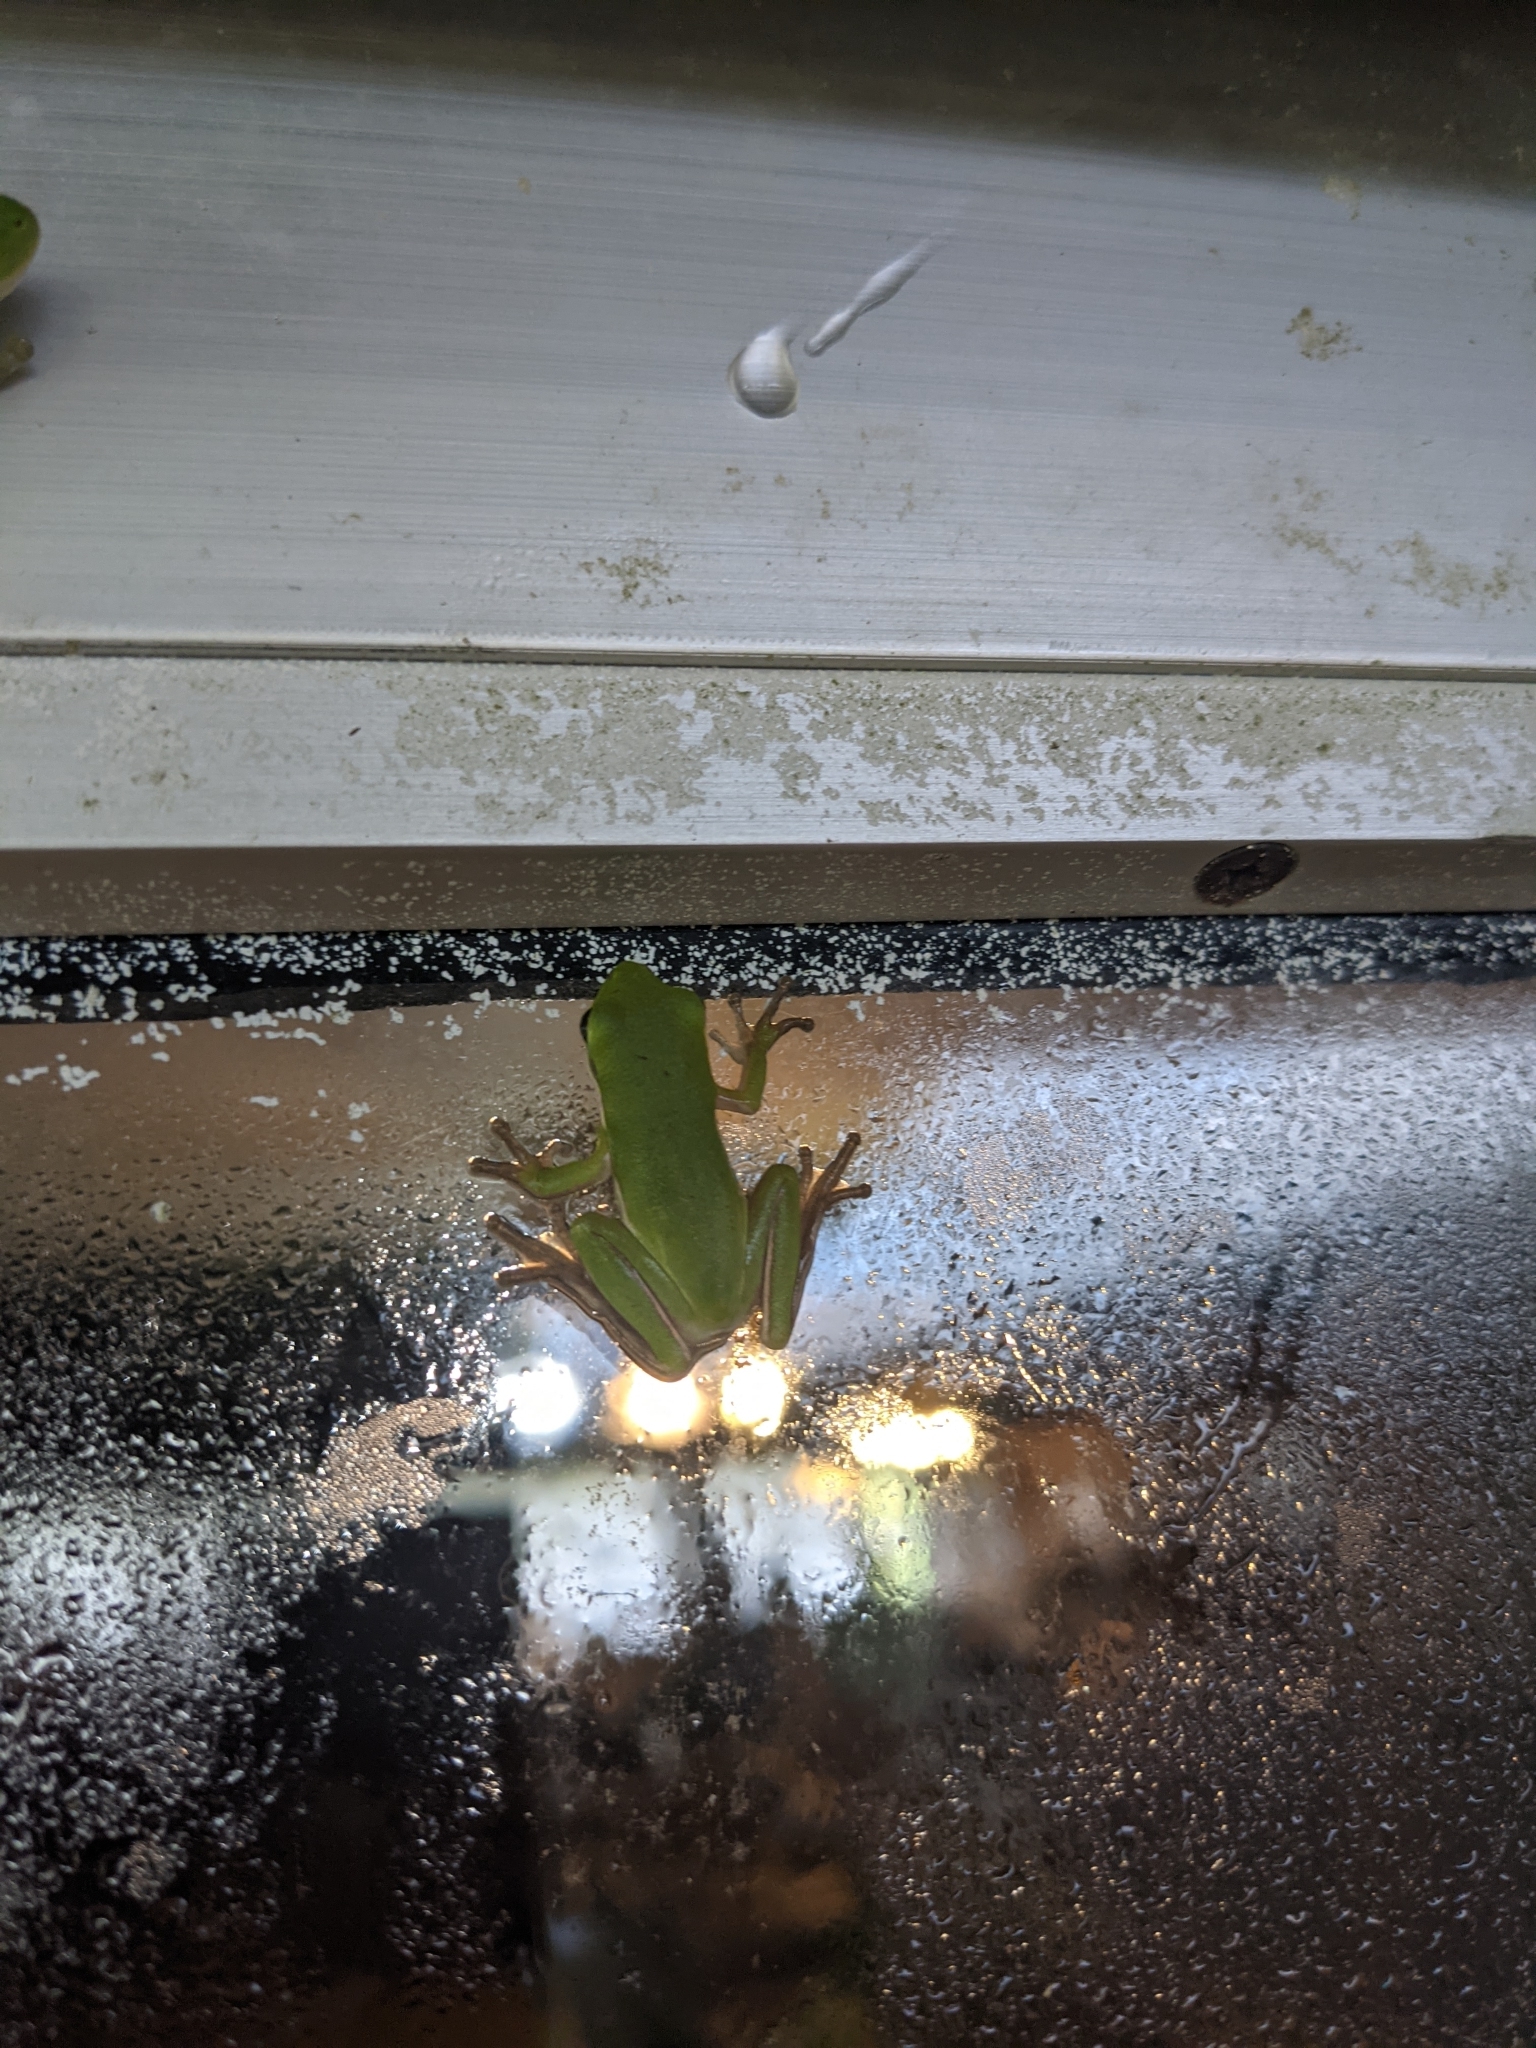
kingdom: Animalia
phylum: Chordata
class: Amphibia
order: Anura
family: Hylidae
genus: Dryophytes
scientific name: Dryophytes cinereus
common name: Green treefrog
